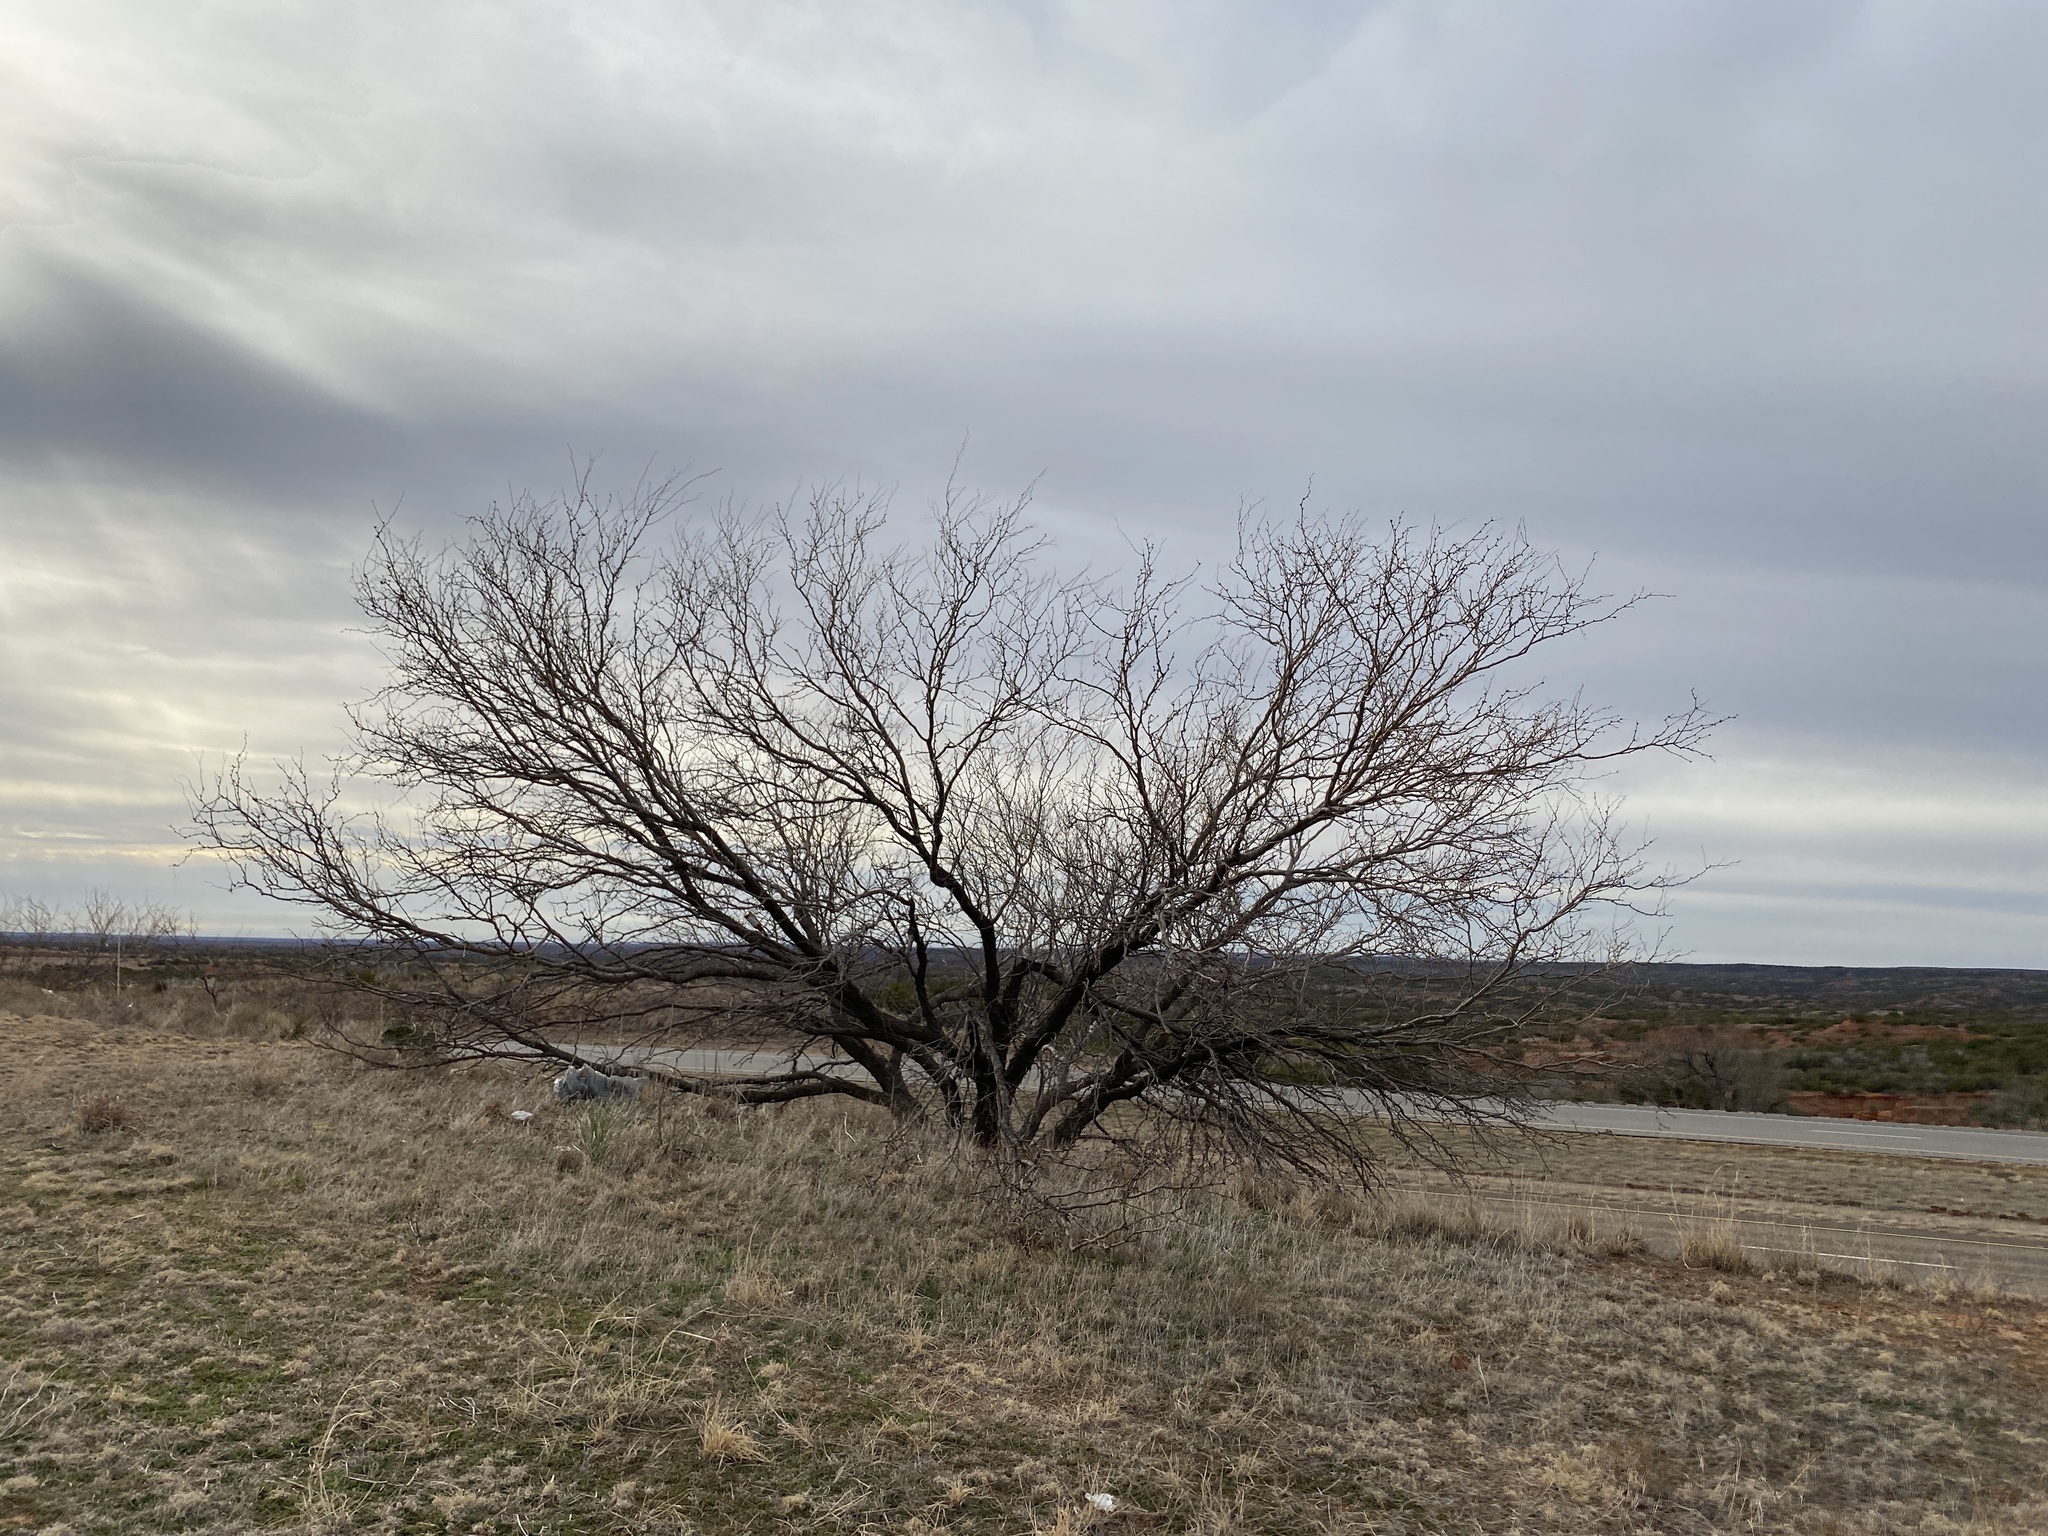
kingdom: Plantae
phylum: Tracheophyta
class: Magnoliopsida
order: Fabales
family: Fabaceae
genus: Prosopis
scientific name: Prosopis glandulosa
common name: Honey mesquite
